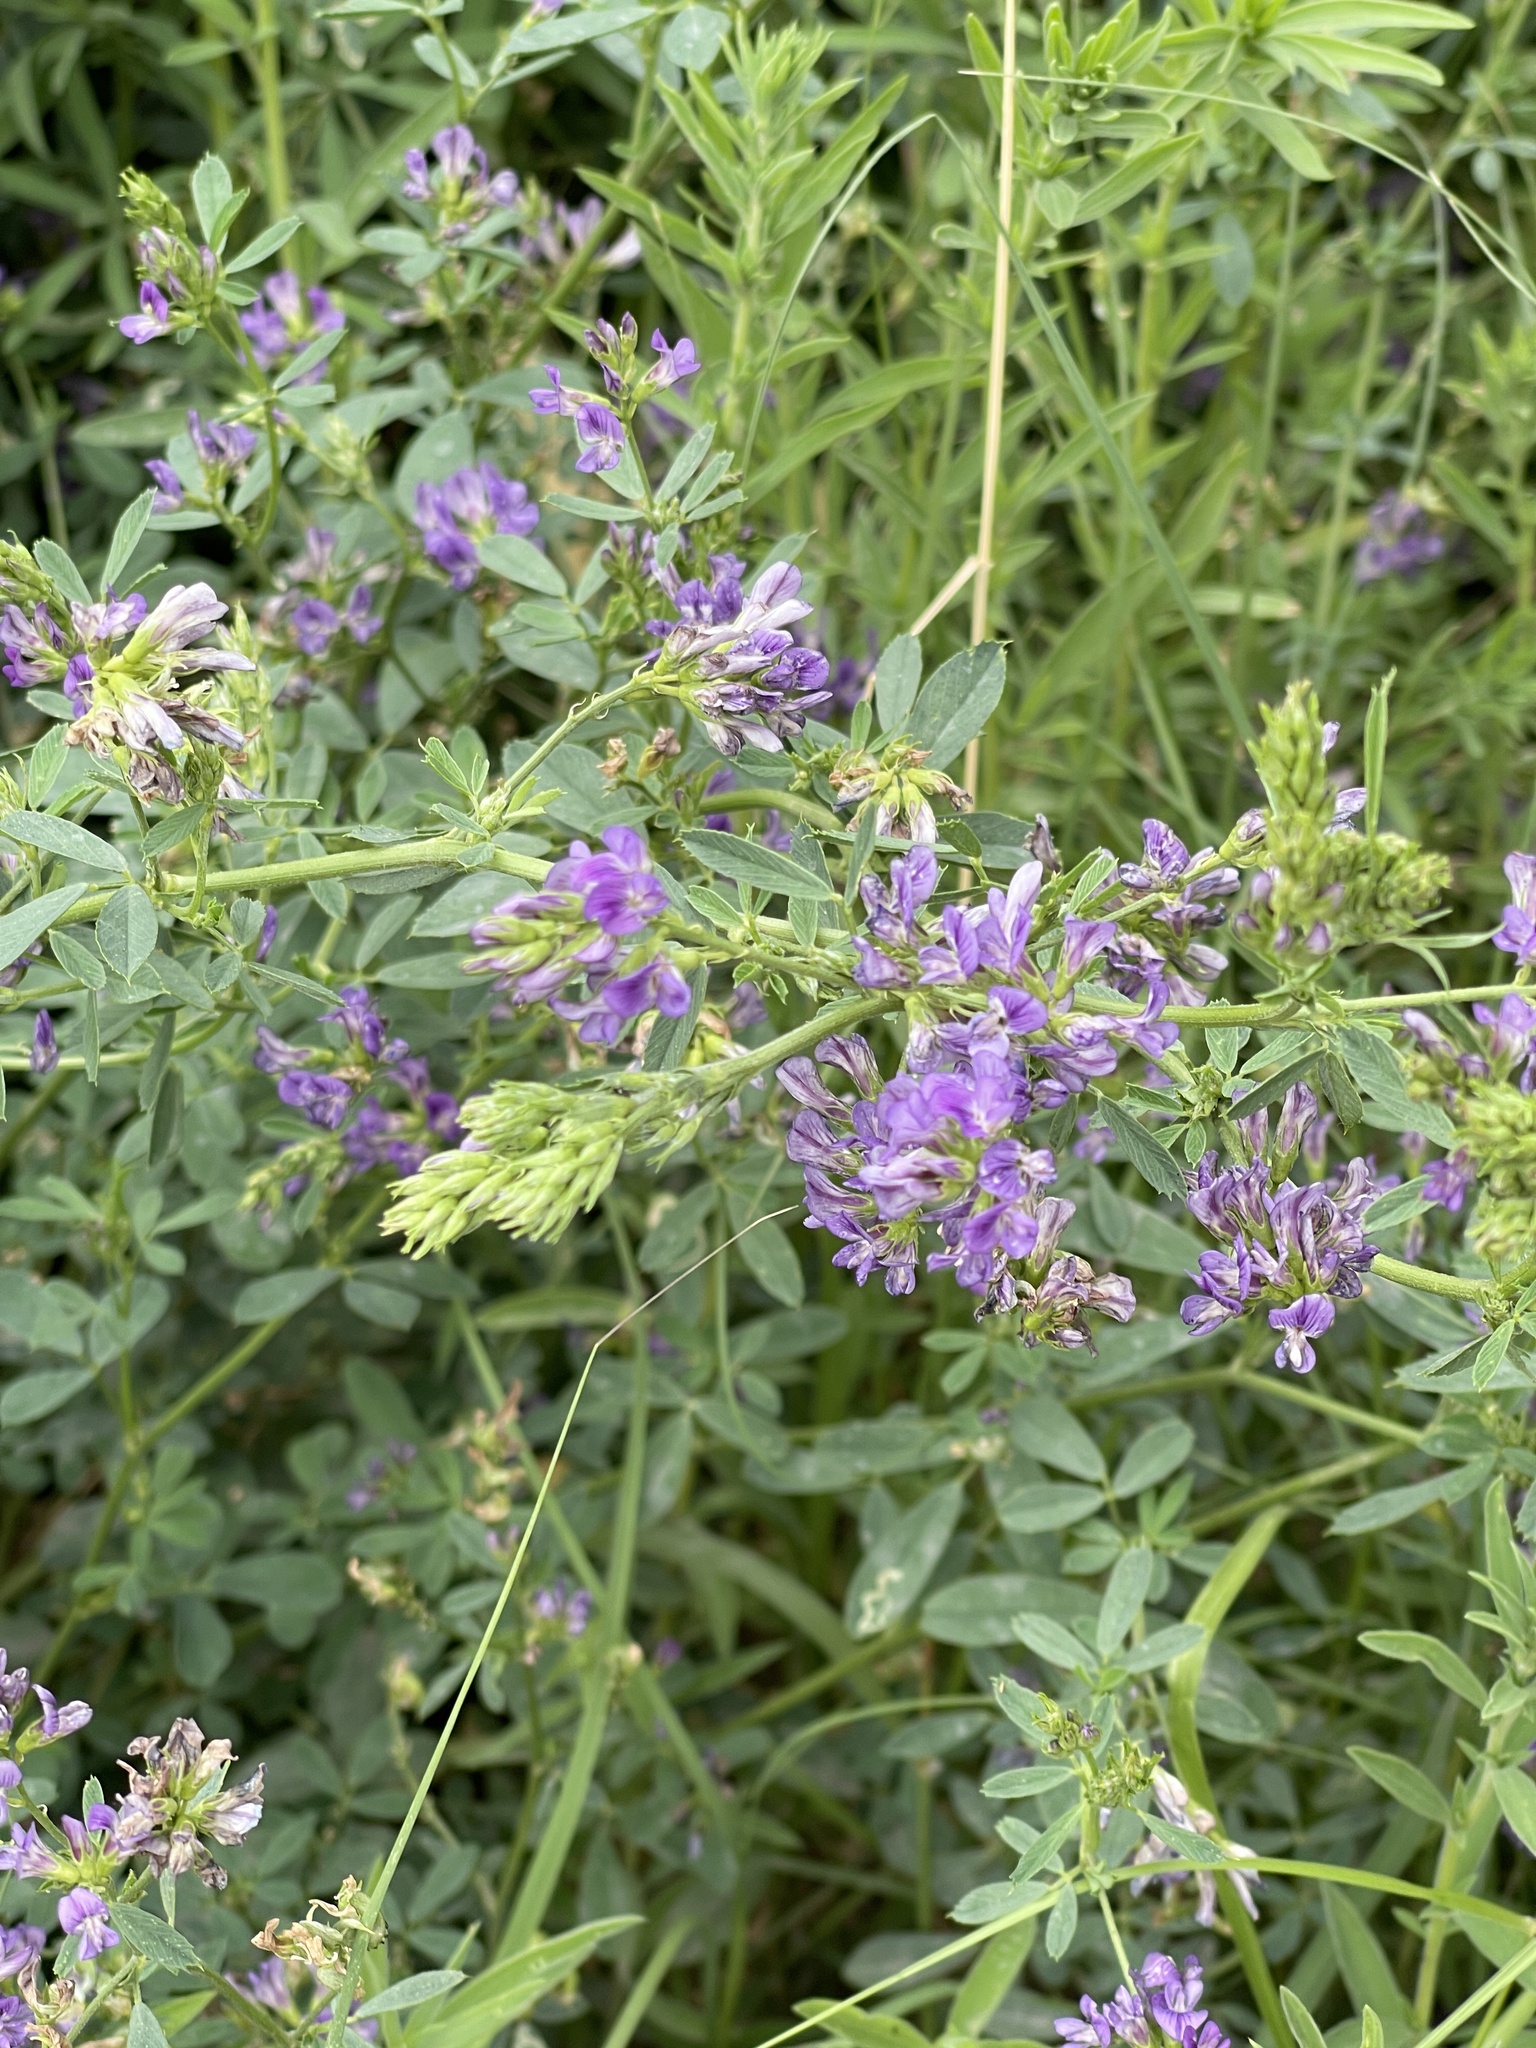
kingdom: Plantae
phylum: Tracheophyta
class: Magnoliopsida
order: Fabales
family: Fabaceae
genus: Medicago
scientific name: Medicago sativa
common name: Alfalfa
